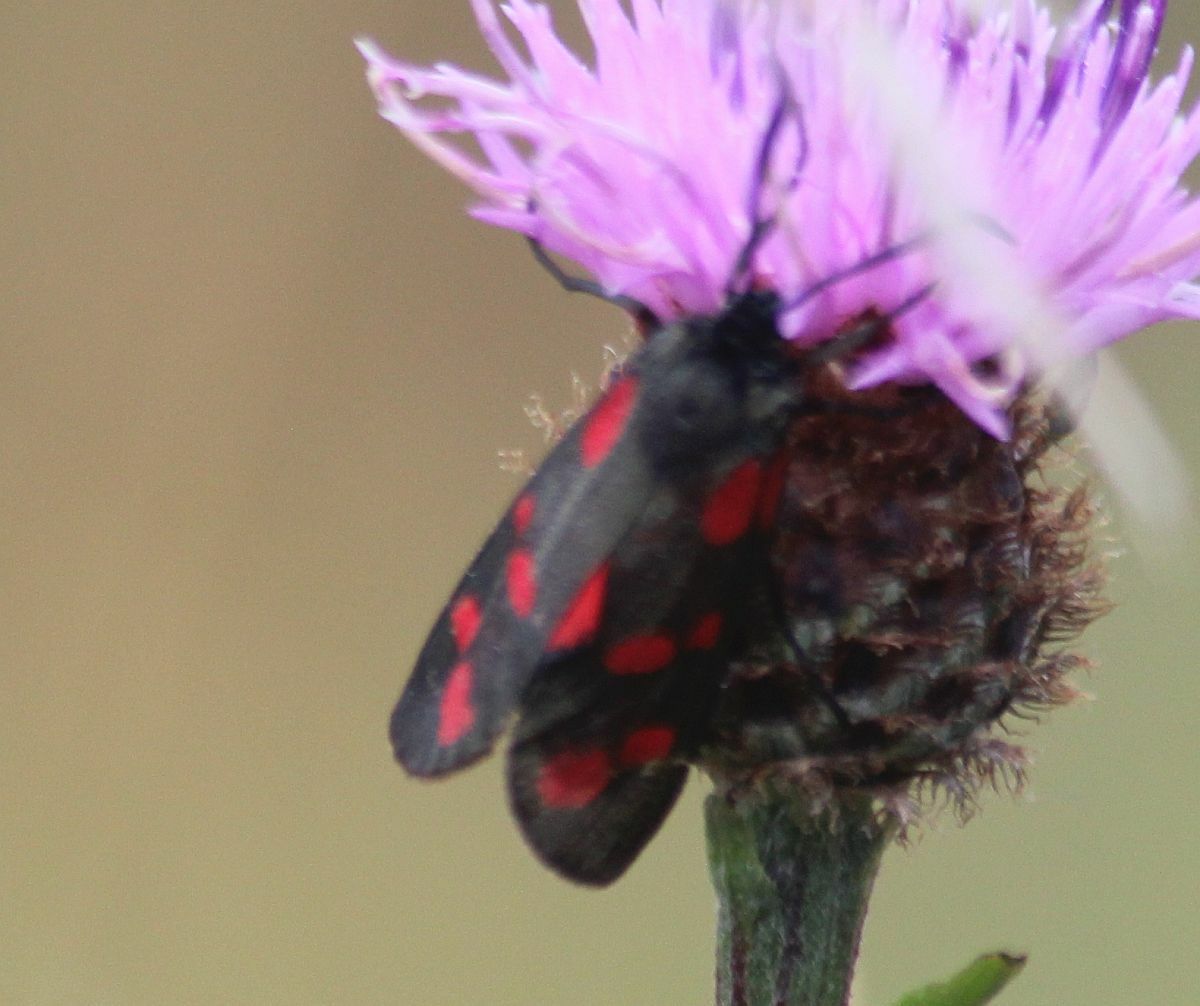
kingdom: Animalia
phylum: Arthropoda
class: Insecta
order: Lepidoptera
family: Zygaenidae
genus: Zygaena
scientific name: Zygaena filipendulae
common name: Six-spot burnet
